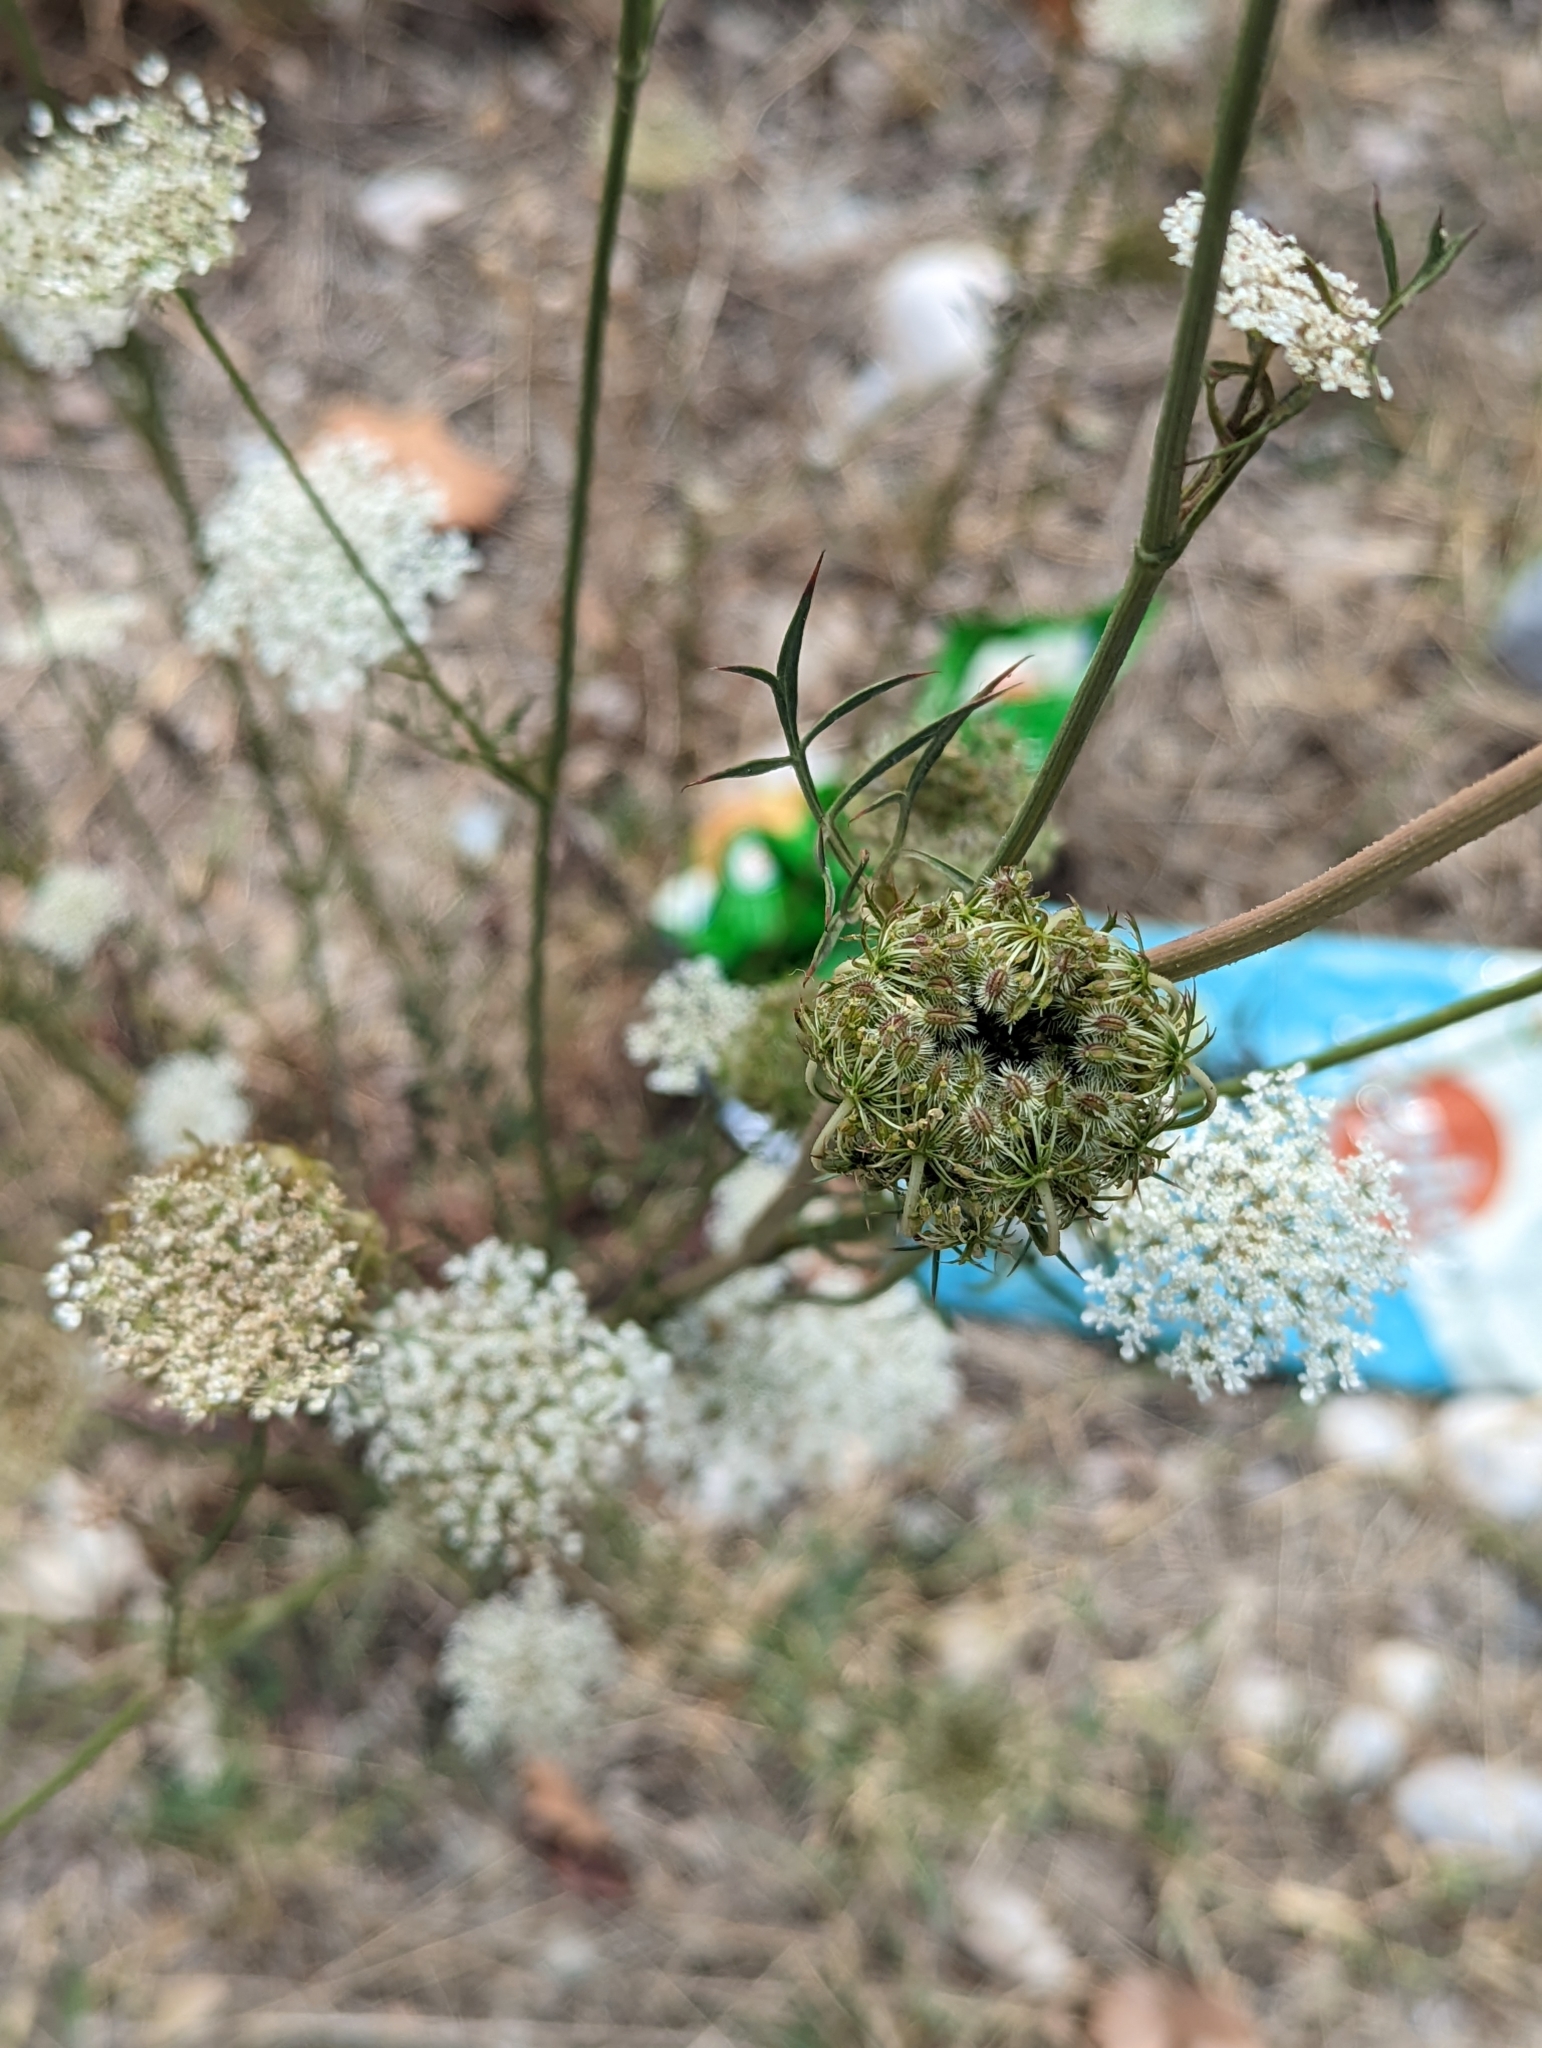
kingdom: Plantae
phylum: Tracheophyta
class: Magnoliopsida
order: Apiales
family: Apiaceae
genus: Daucus
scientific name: Daucus carota
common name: Wild carrot
